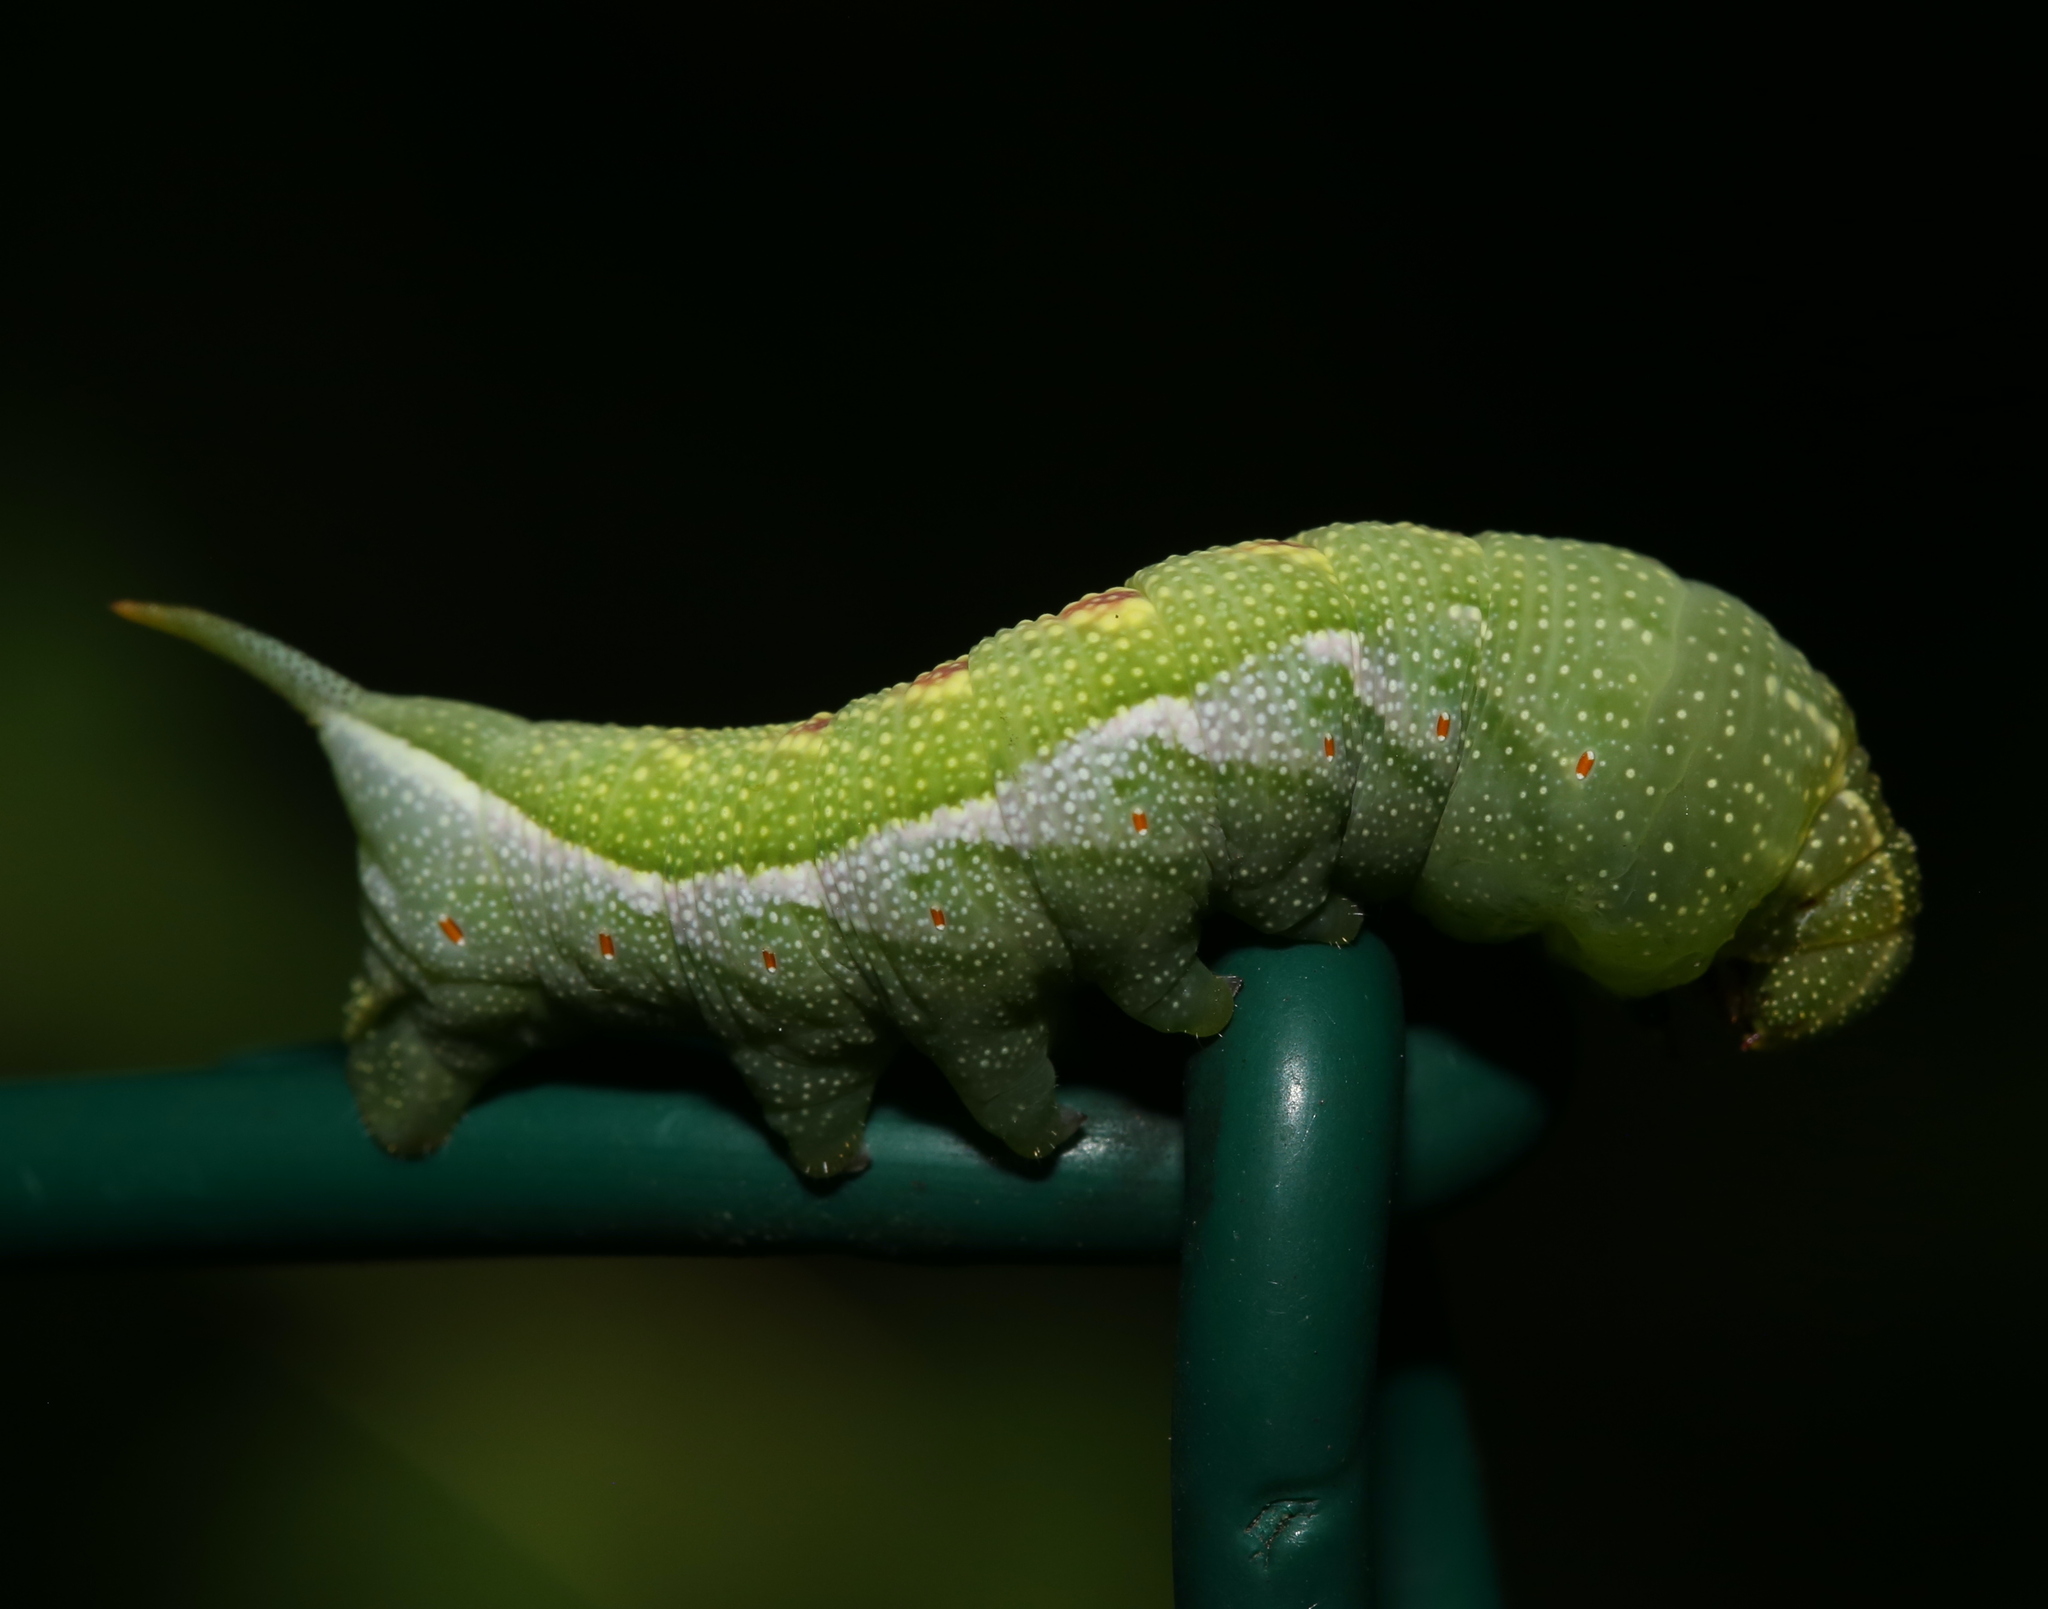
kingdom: Animalia
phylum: Arthropoda
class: Insecta
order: Lepidoptera
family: Sphingidae
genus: Darapsa
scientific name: Darapsa myron
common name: Hog sphinx
